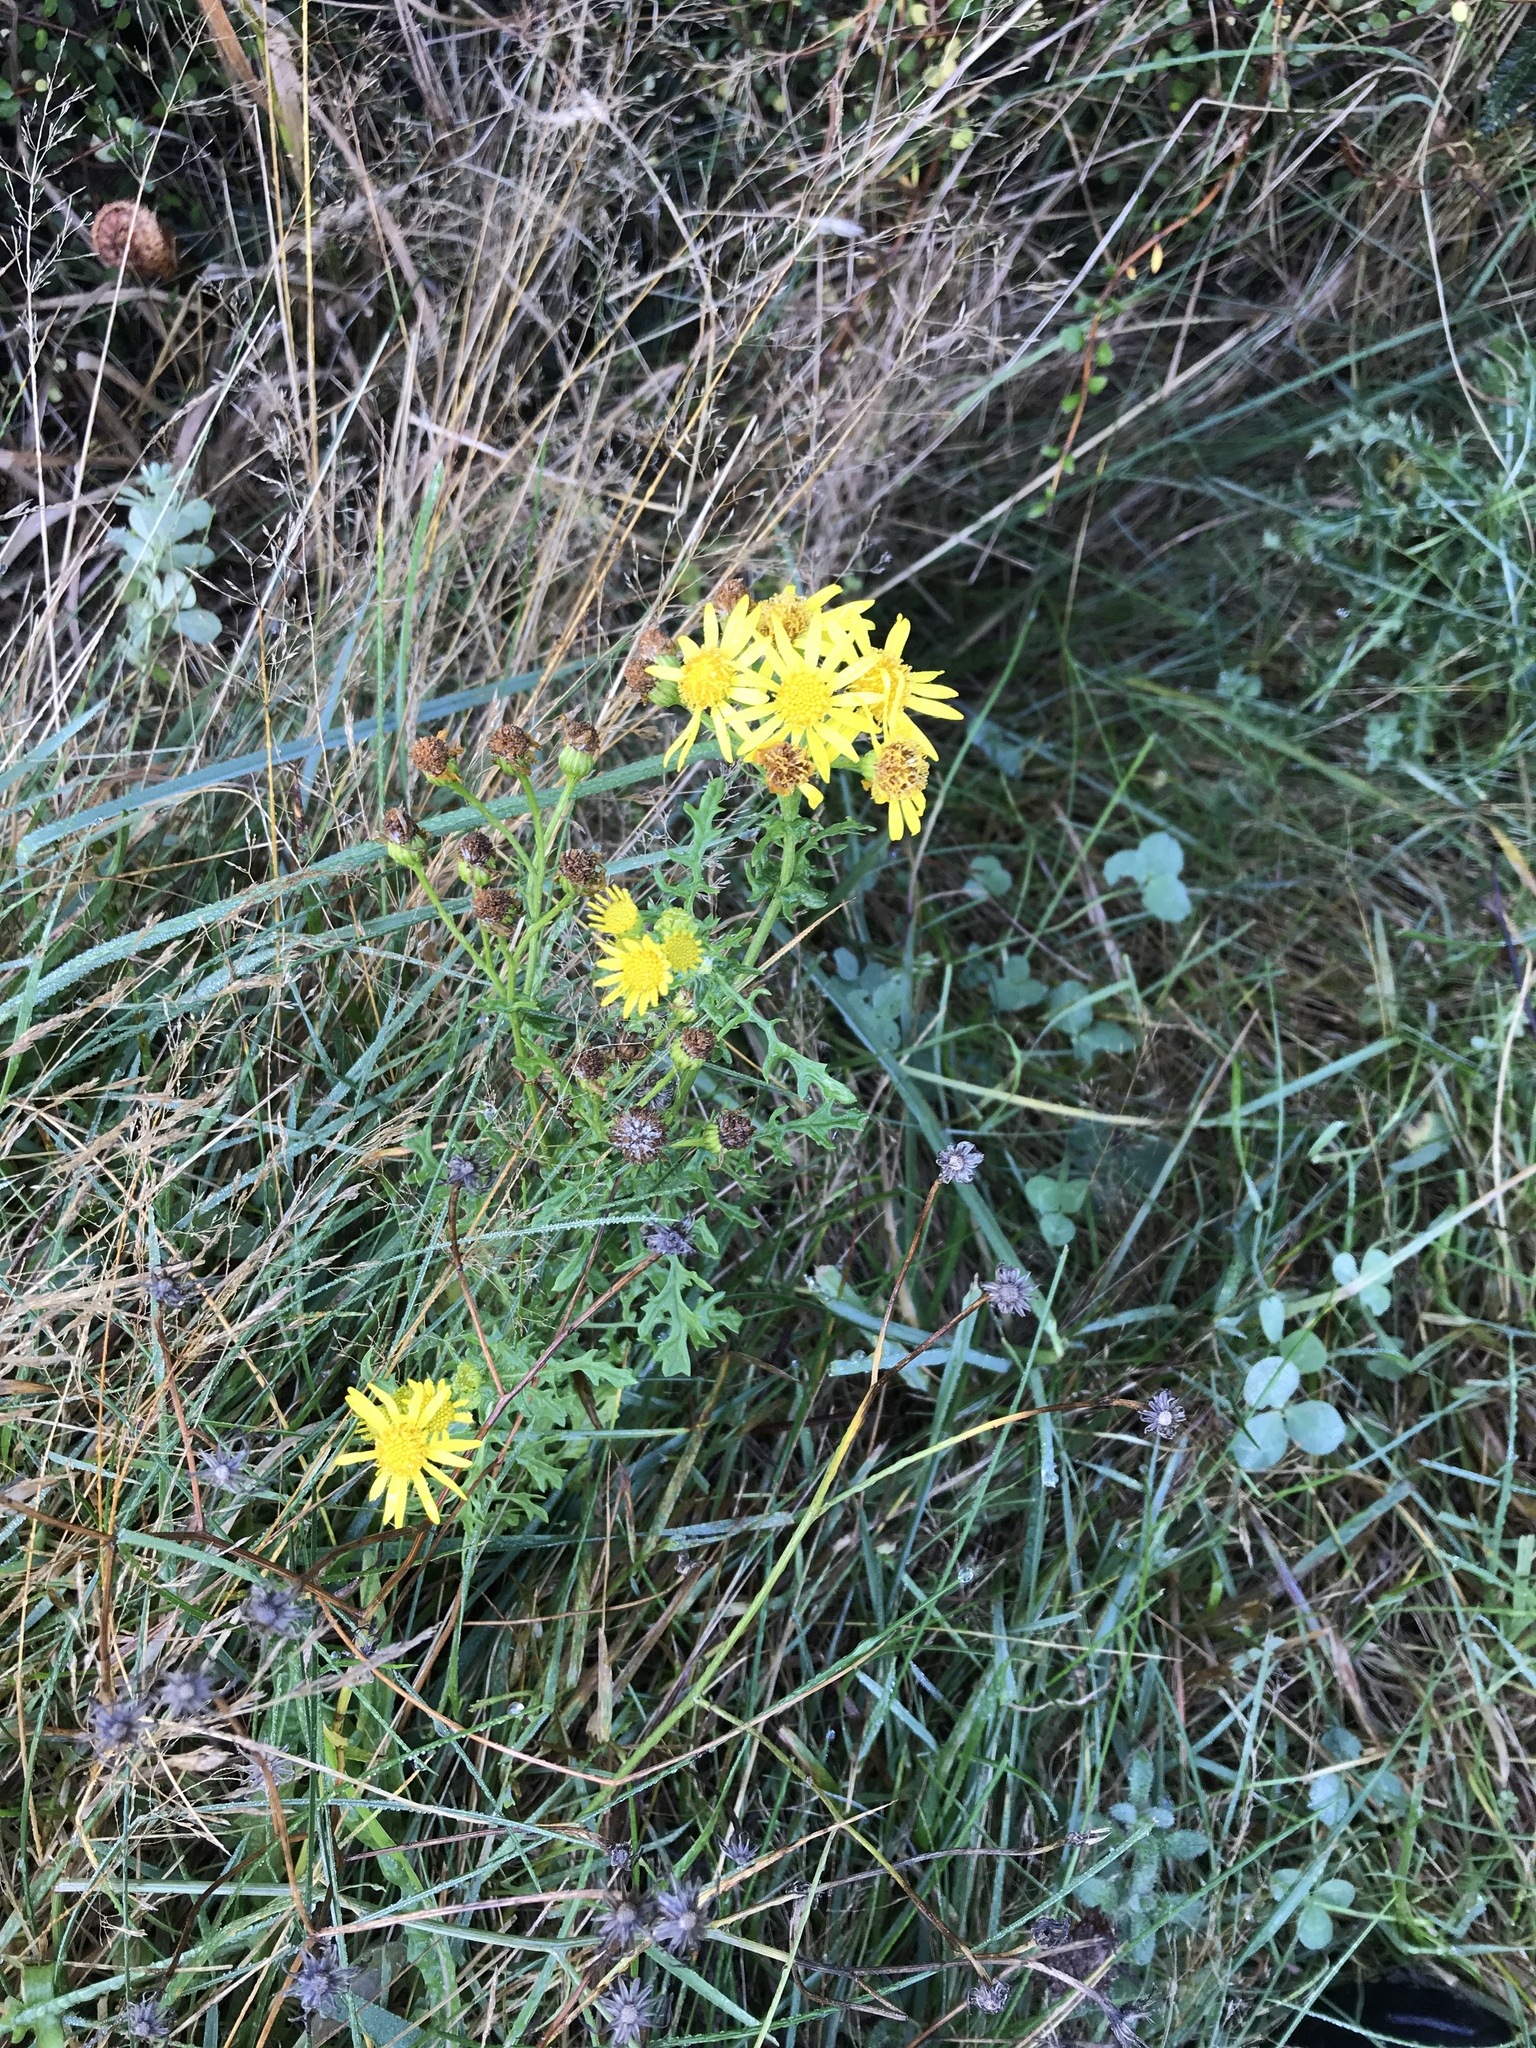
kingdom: Plantae
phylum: Tracheophyta
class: Magnoliopsida
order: Asterales
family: Asteraceae
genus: Jacobaea
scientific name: Jacobaea vulgaris
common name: Stinking willie
